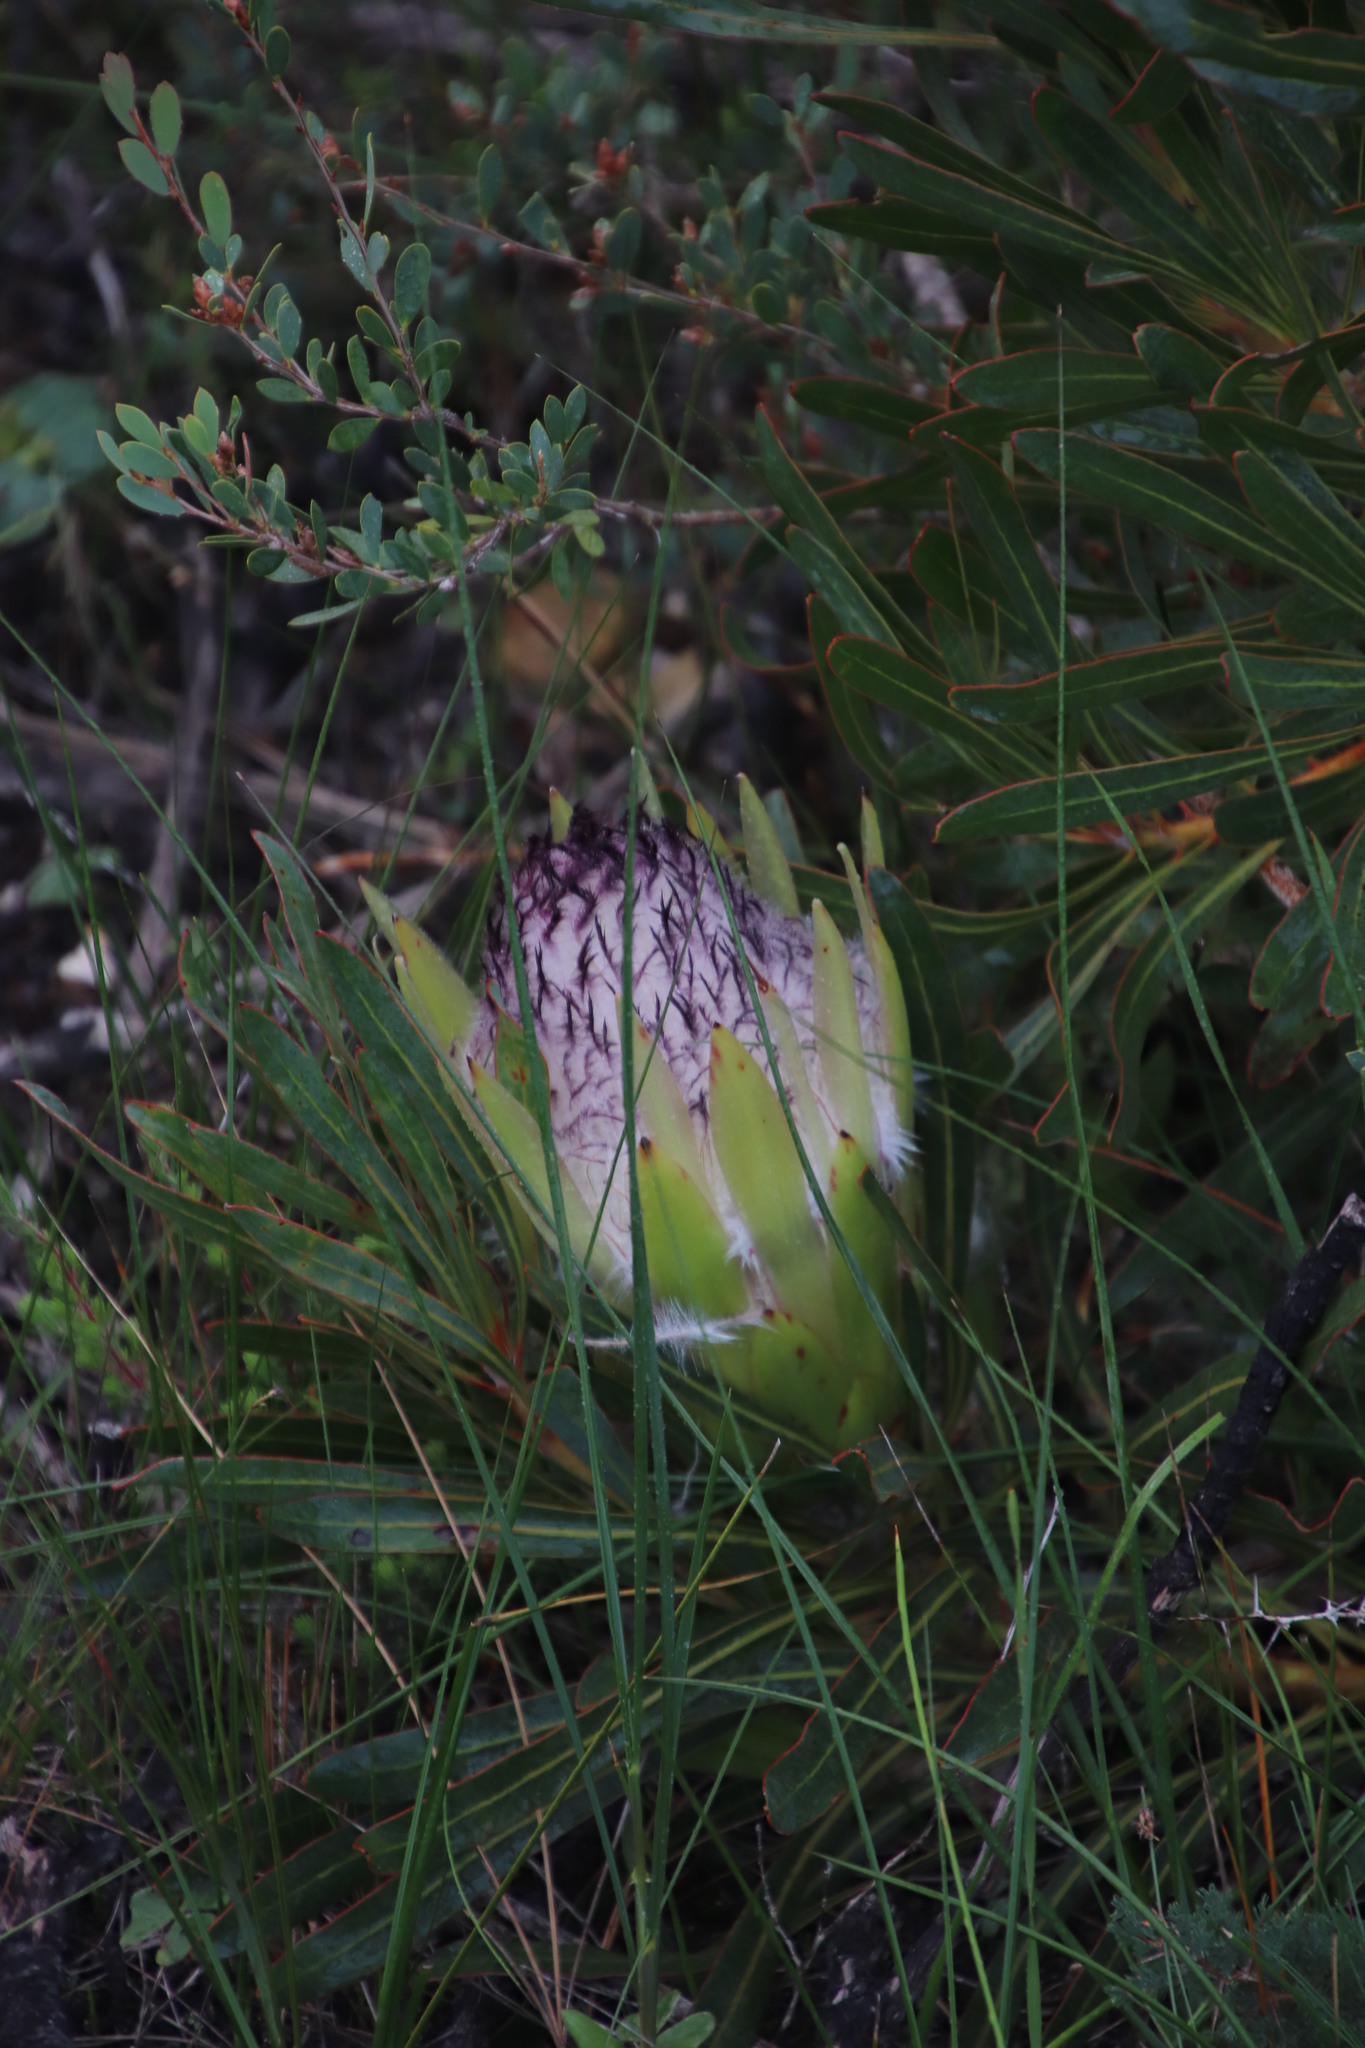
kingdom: Plantae
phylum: Tracheophyta
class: Magnoliopsida
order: Proteales
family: Proteaceae
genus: Protea
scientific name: Protea longifolia
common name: Long-leaf sugarbush
